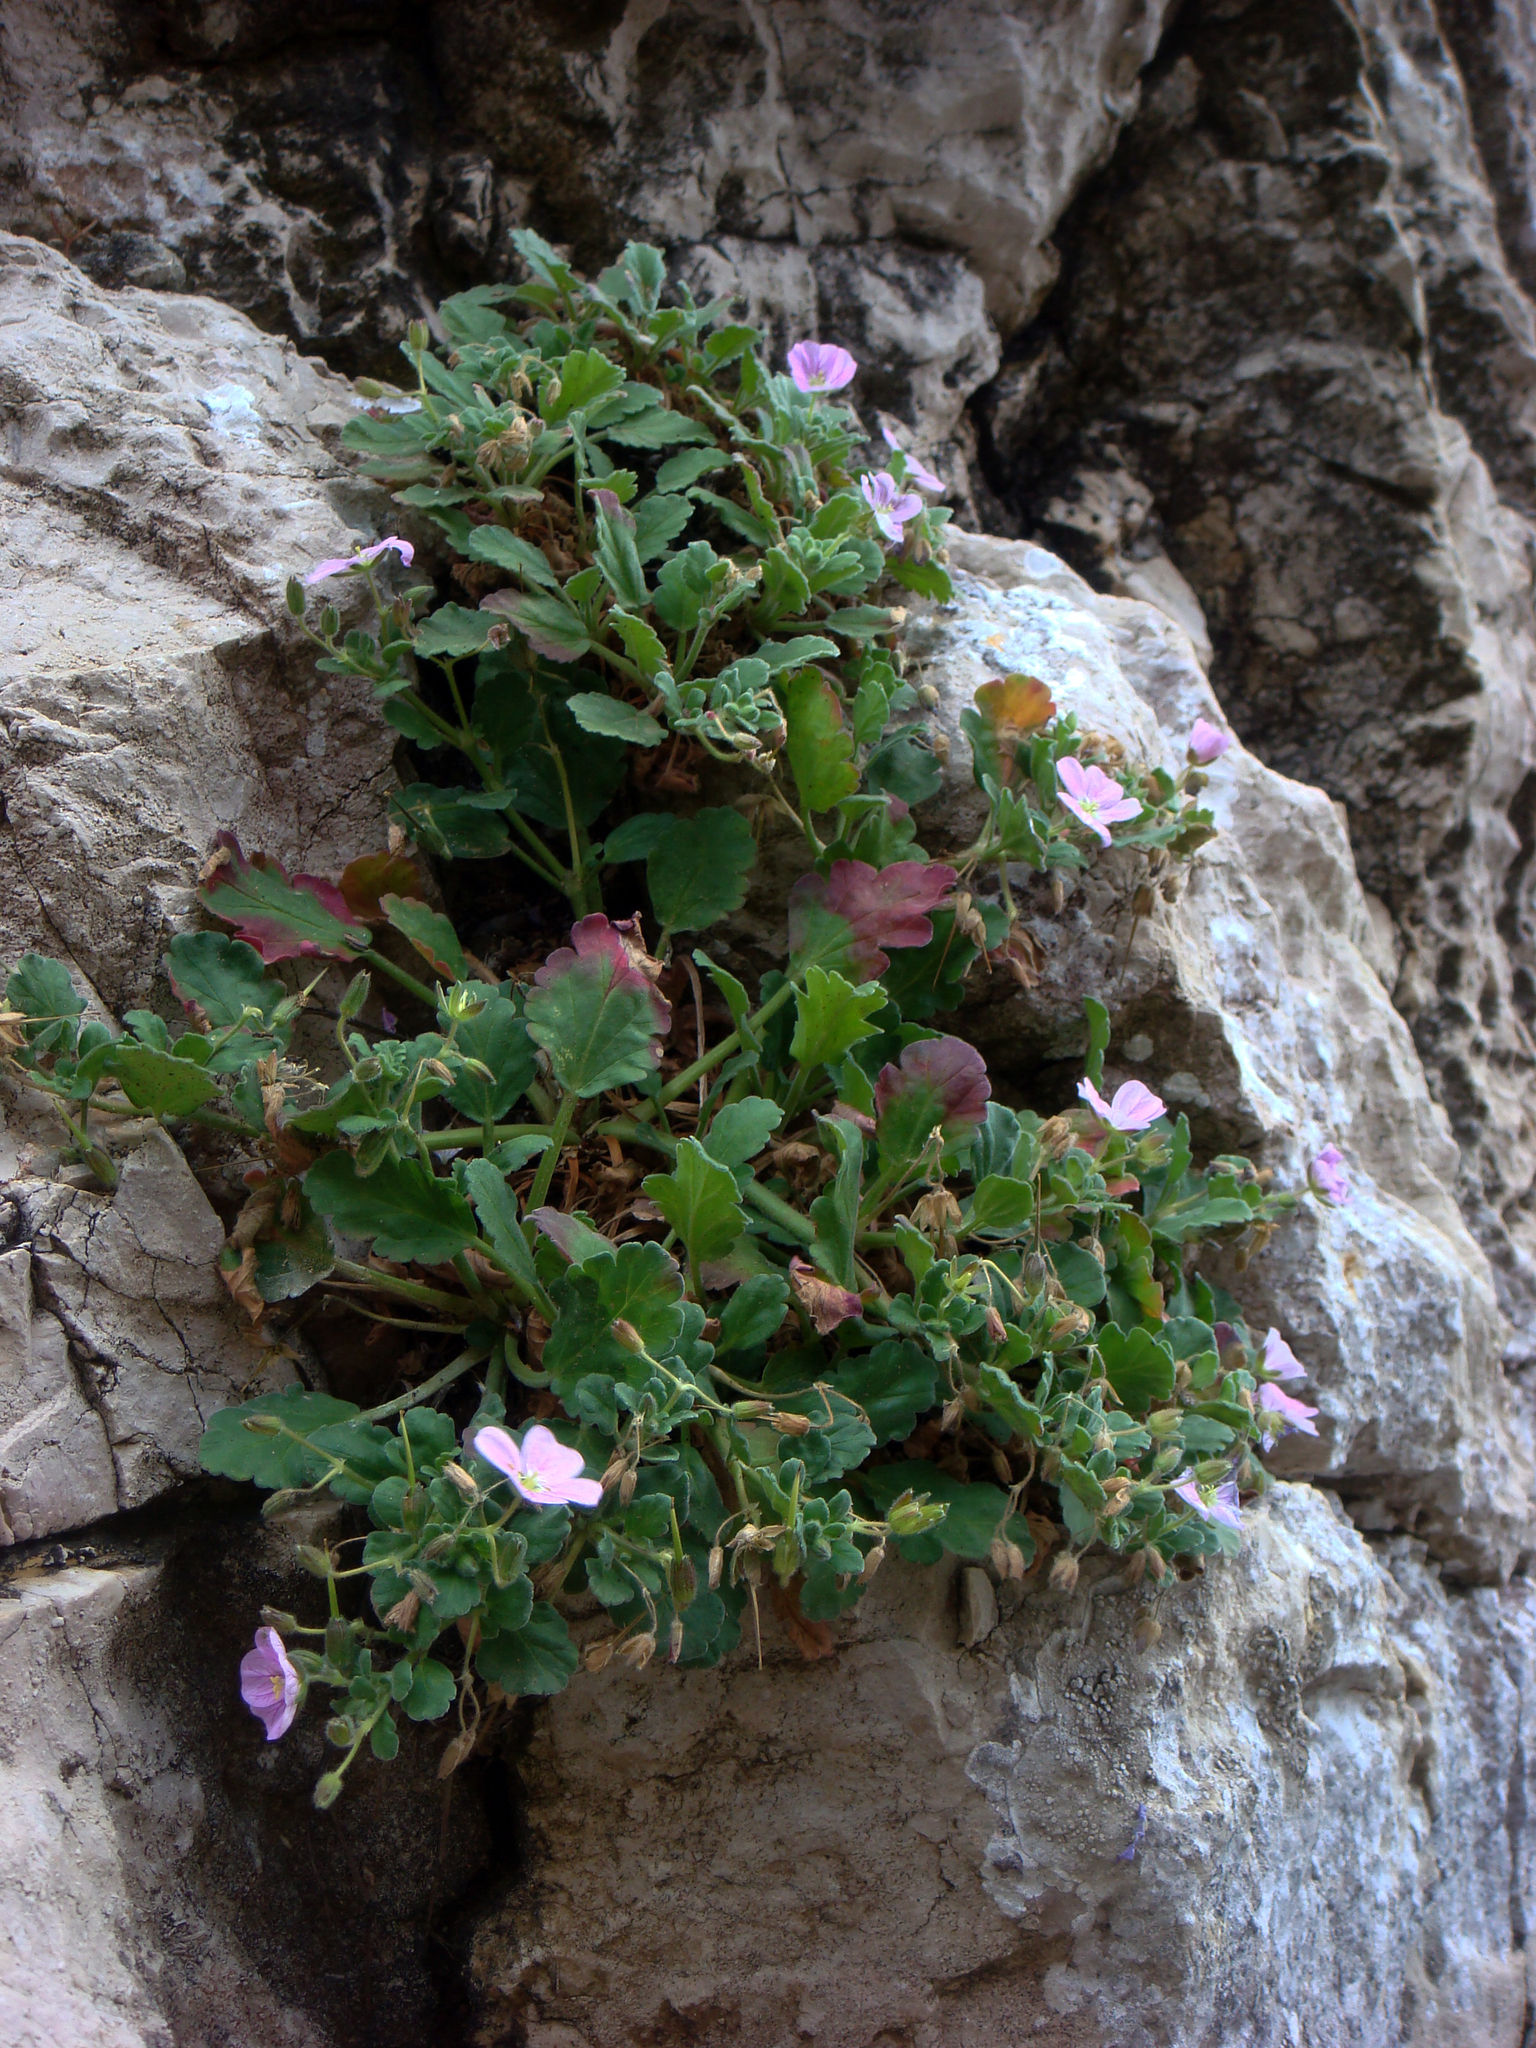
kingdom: Plantae
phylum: Tracheophyta
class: Magnoliopsida
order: Geraniales
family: Geraniaceae
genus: Erodium
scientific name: Erodium corsicum
